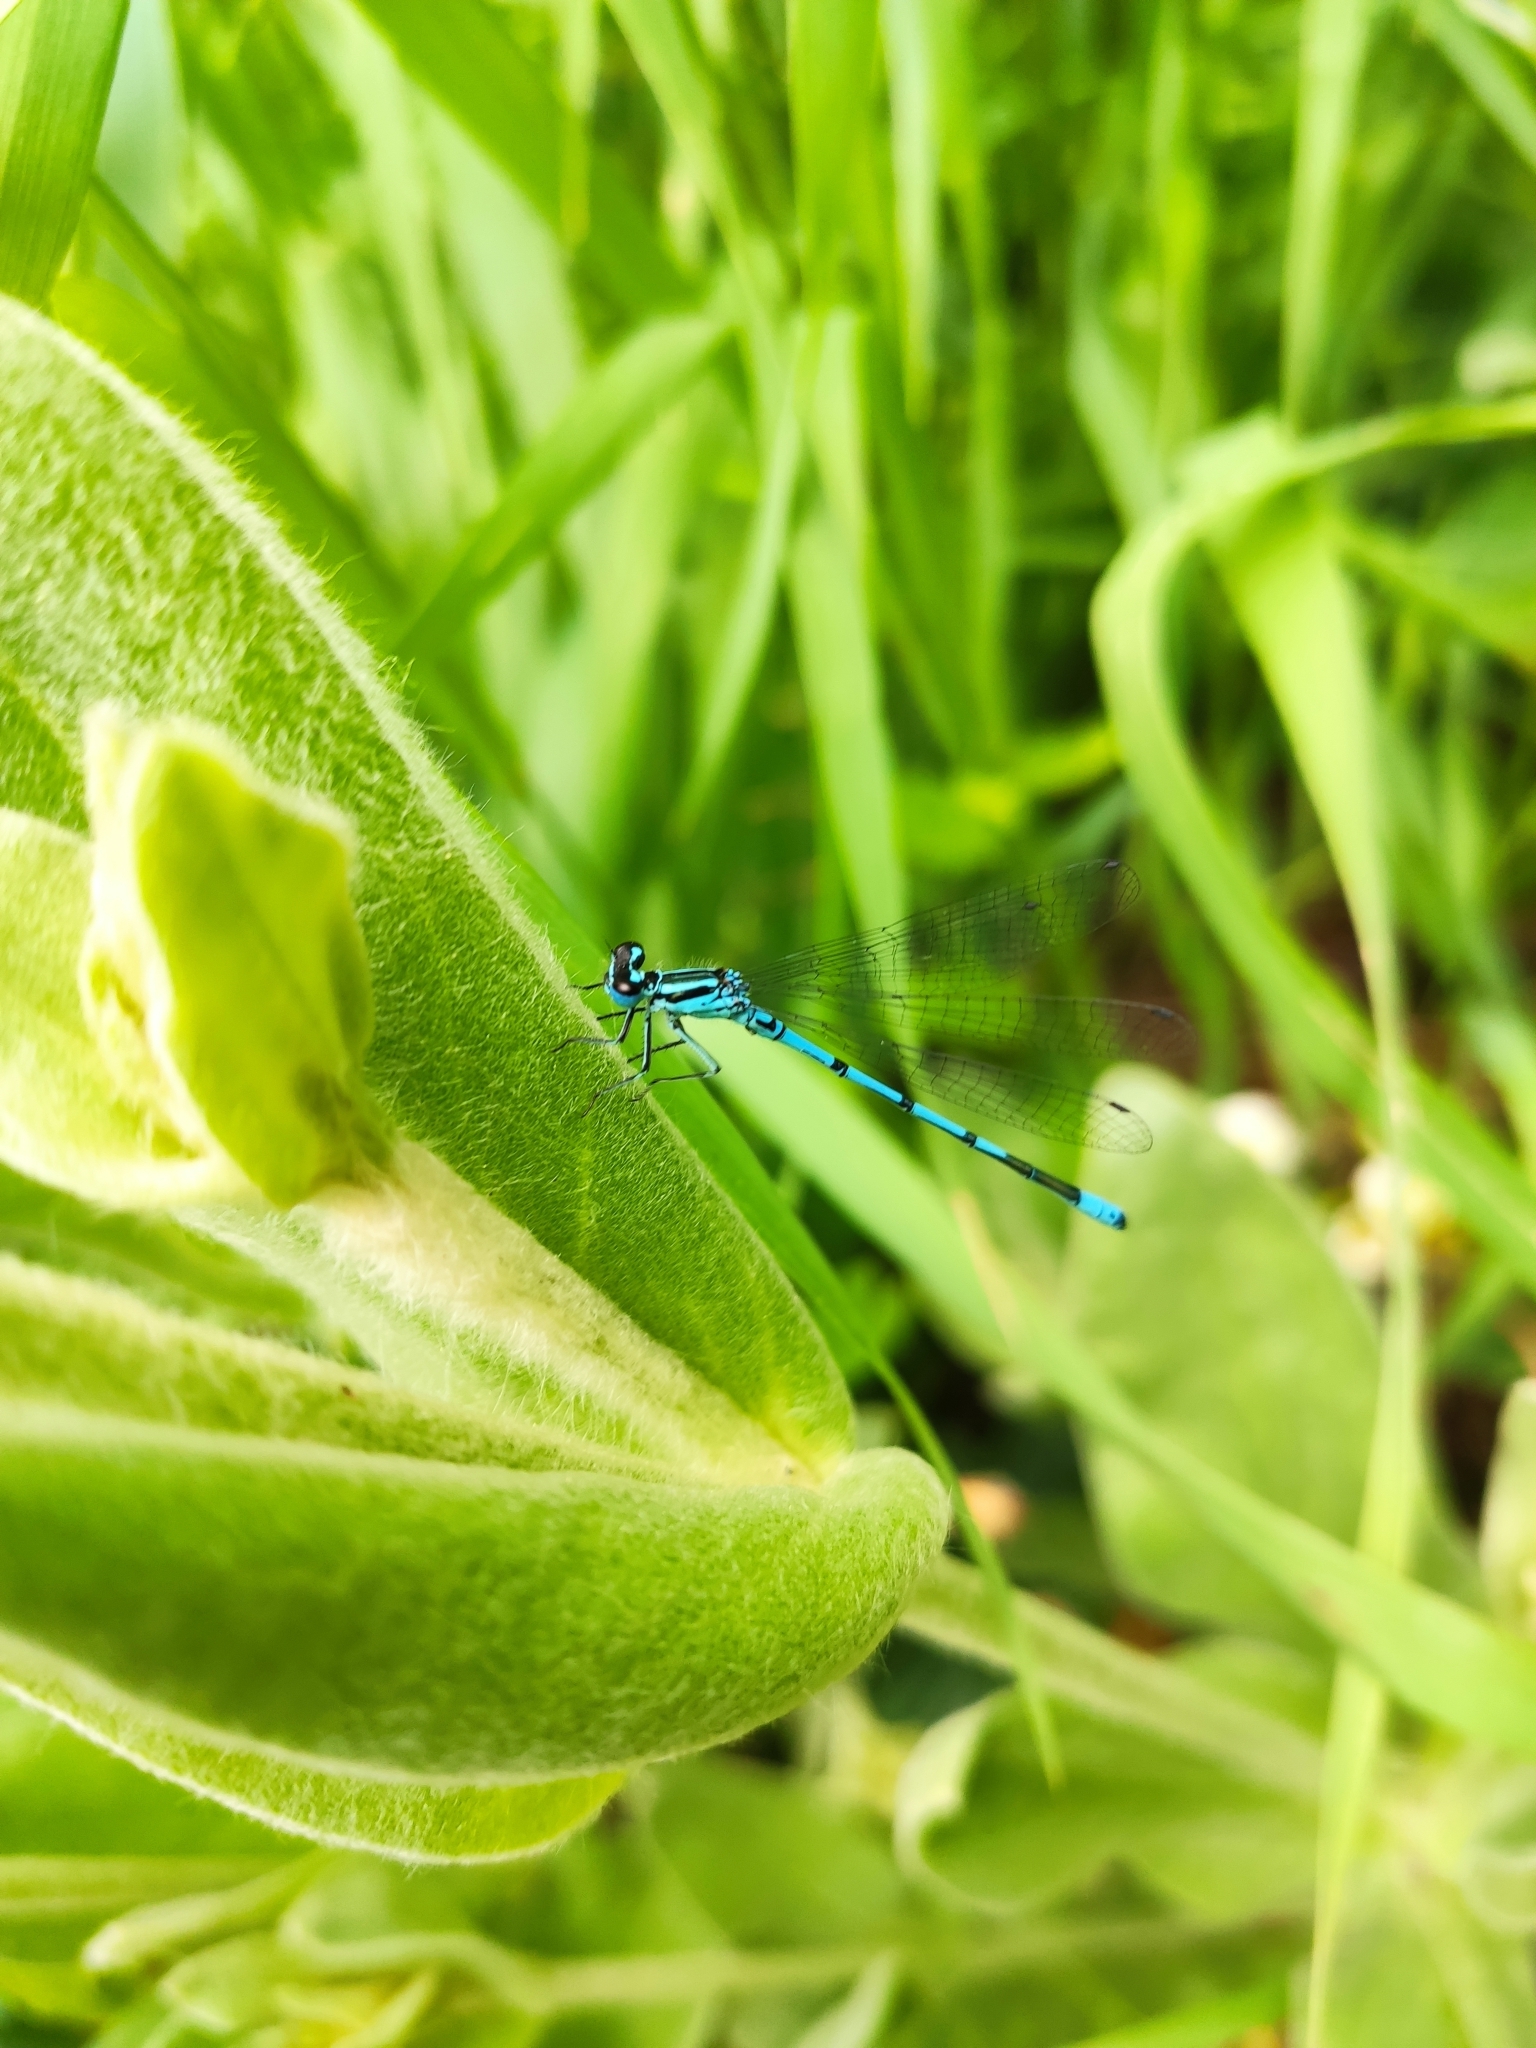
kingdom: Animalia
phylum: Arthropoda
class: Insecta
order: Odonata
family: Coenagrionidae
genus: Coenagrion
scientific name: Coenagrion puella
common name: Azure damselfly
